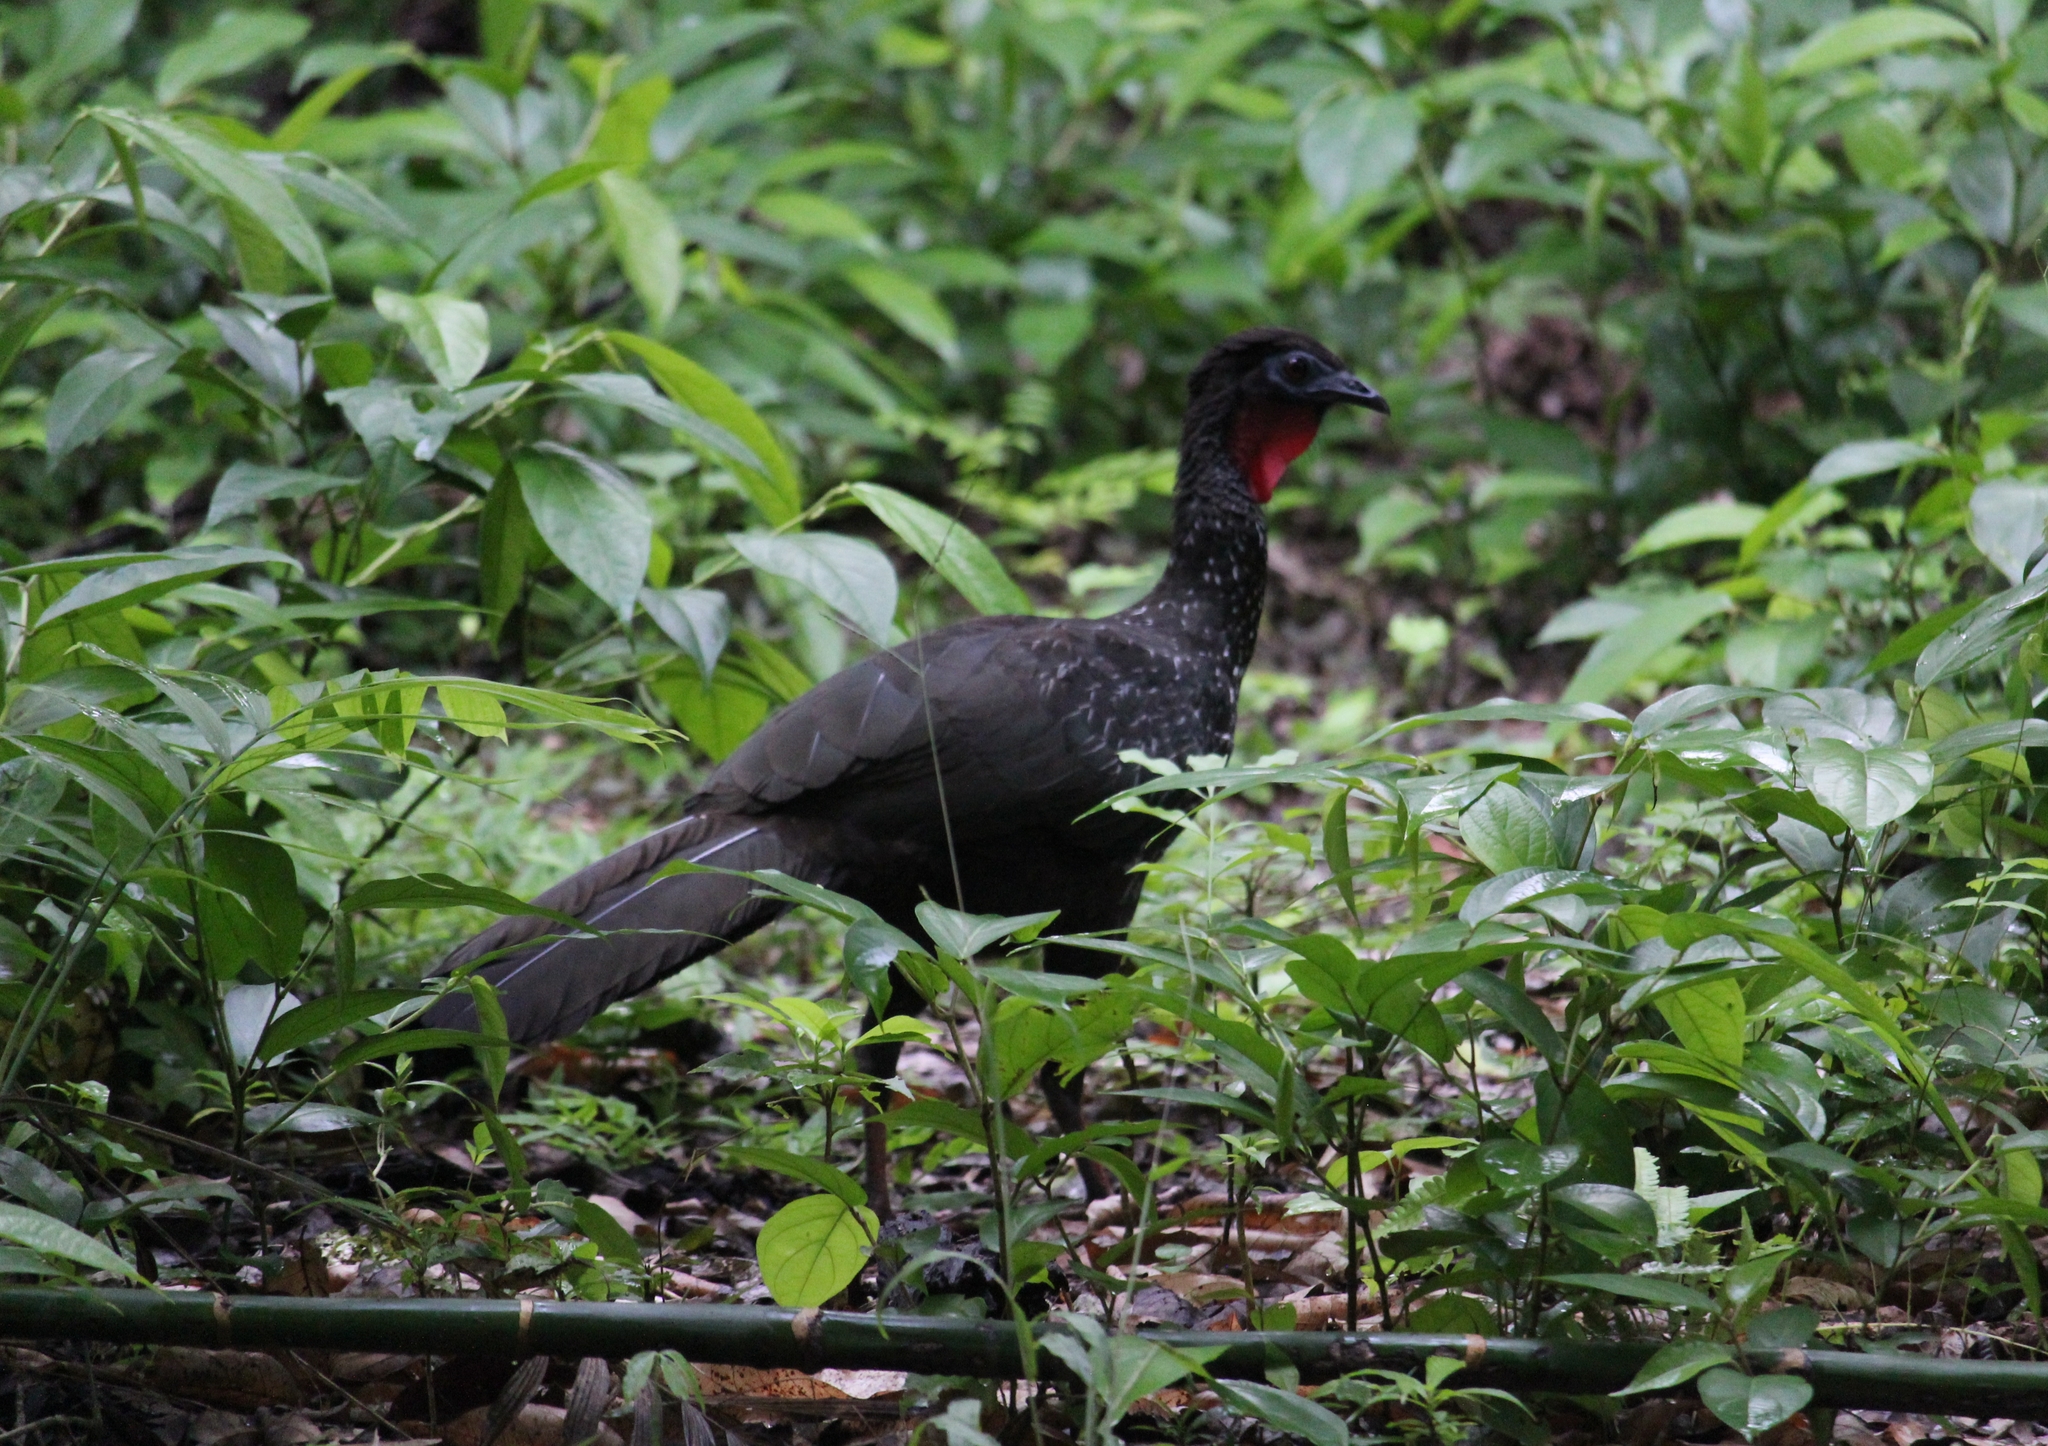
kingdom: Animalia
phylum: Chordata
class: Aves
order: Galliformes
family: Cracidae
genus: Penelope
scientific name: Penelope purpurascens
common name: Crested guan
